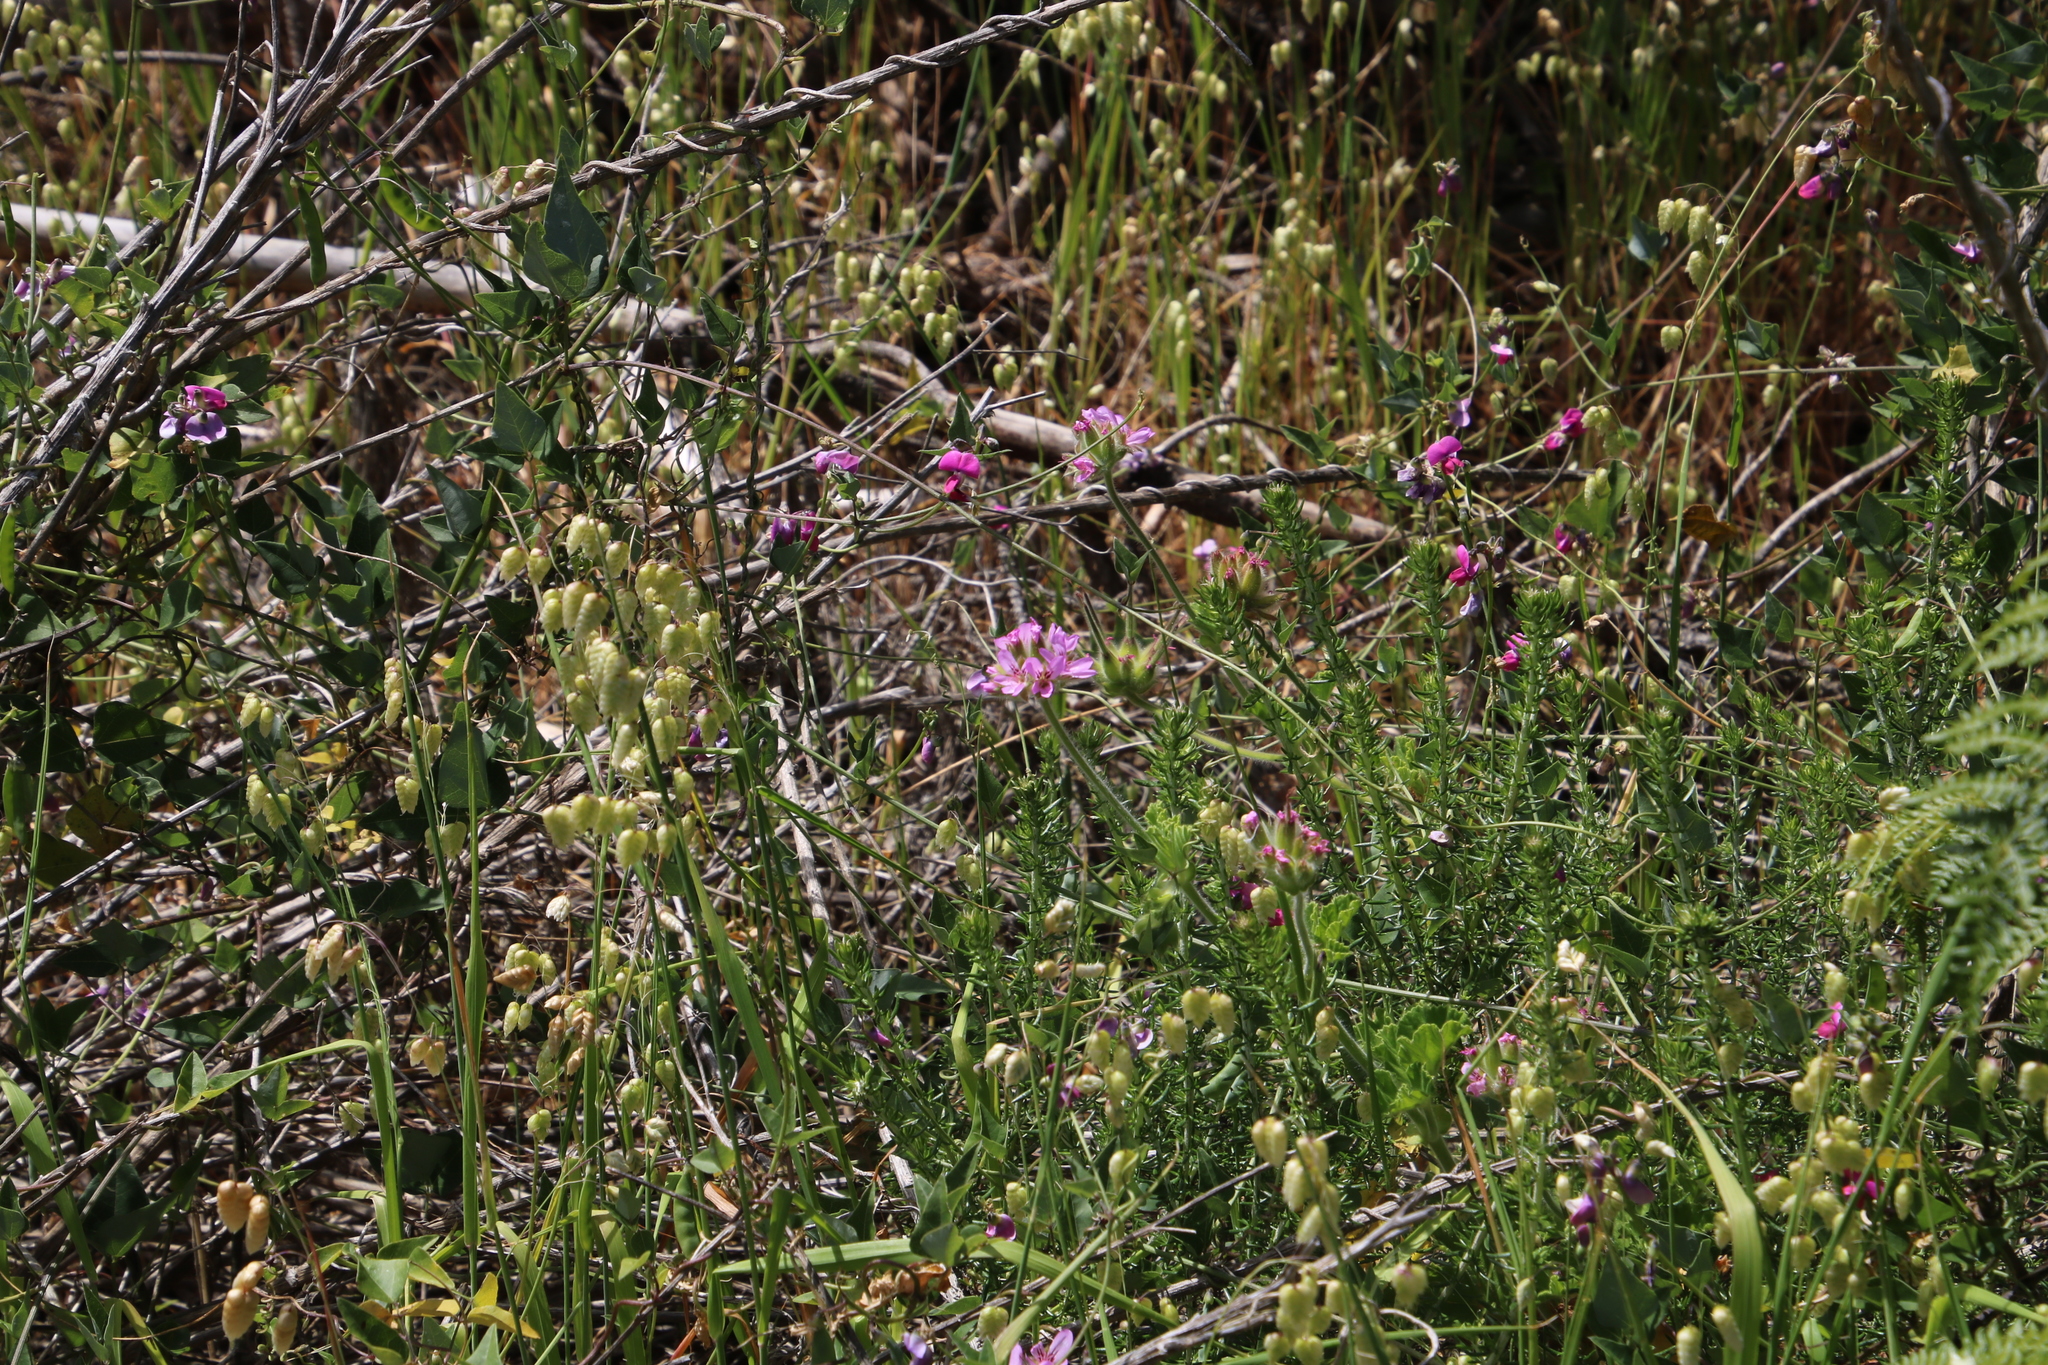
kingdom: Plantae
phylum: Tracheophyta
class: Magnoliopsida
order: Geraniales
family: Geraniaceae
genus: Pelargonium
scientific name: Pelargonium capitatum
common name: Rose scented geranium
